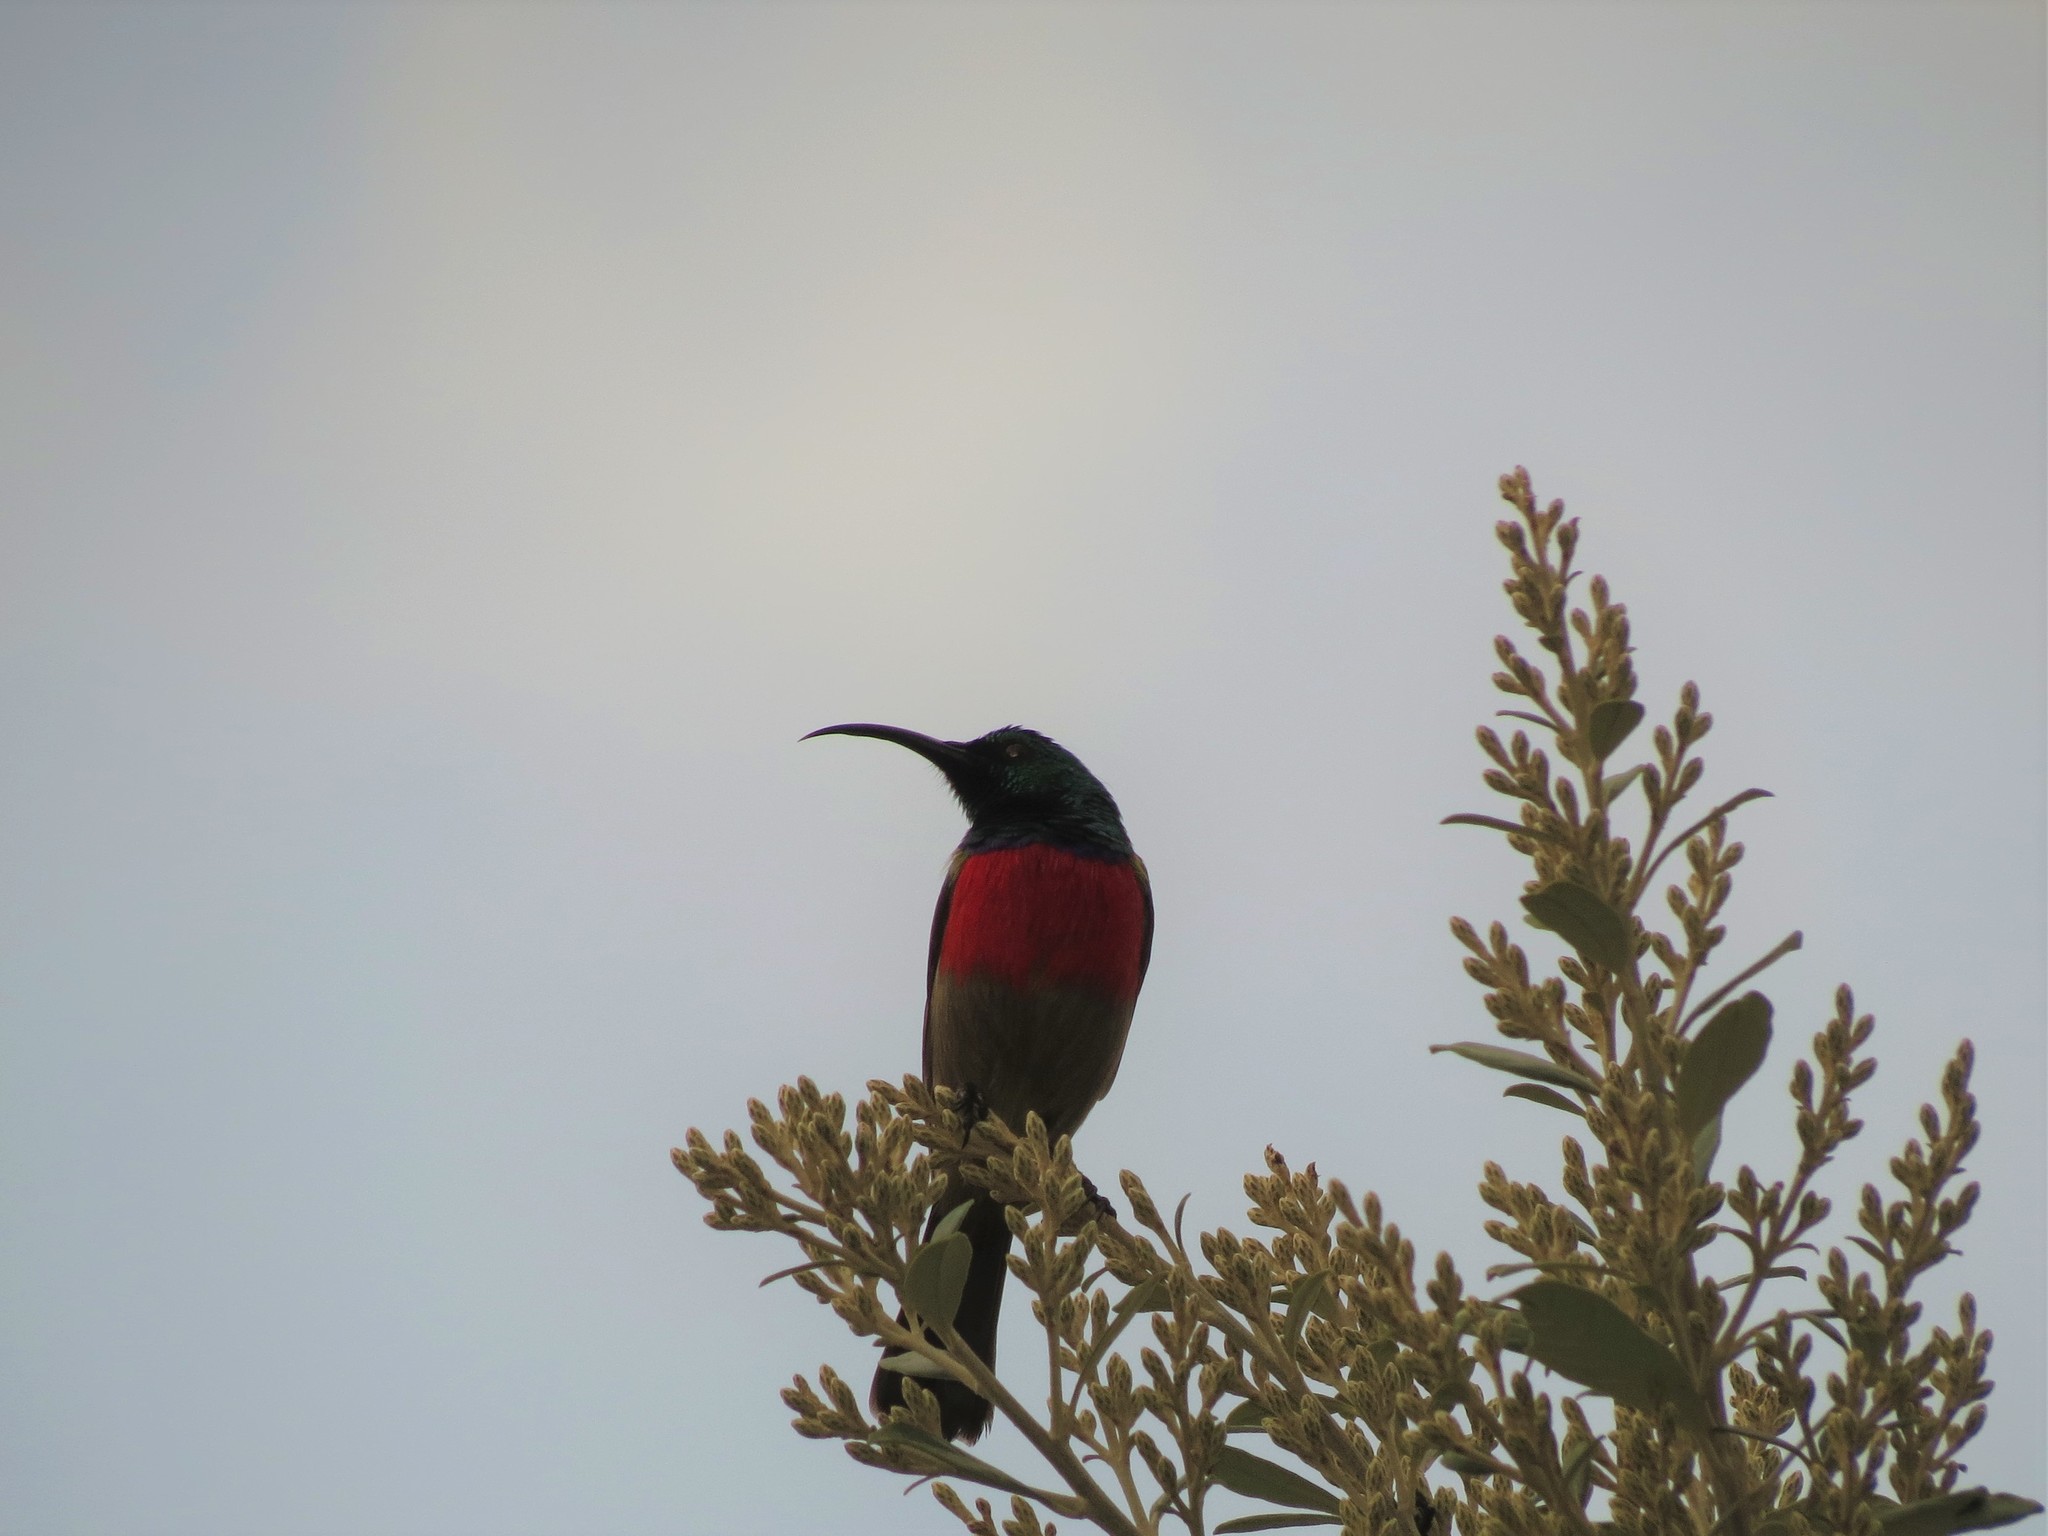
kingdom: Animalia
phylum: Chordata
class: Aves
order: Passeriformes
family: Nectariniidae
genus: Cinnyris
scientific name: Cinnyris afer
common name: Greater double-collared sunbird
